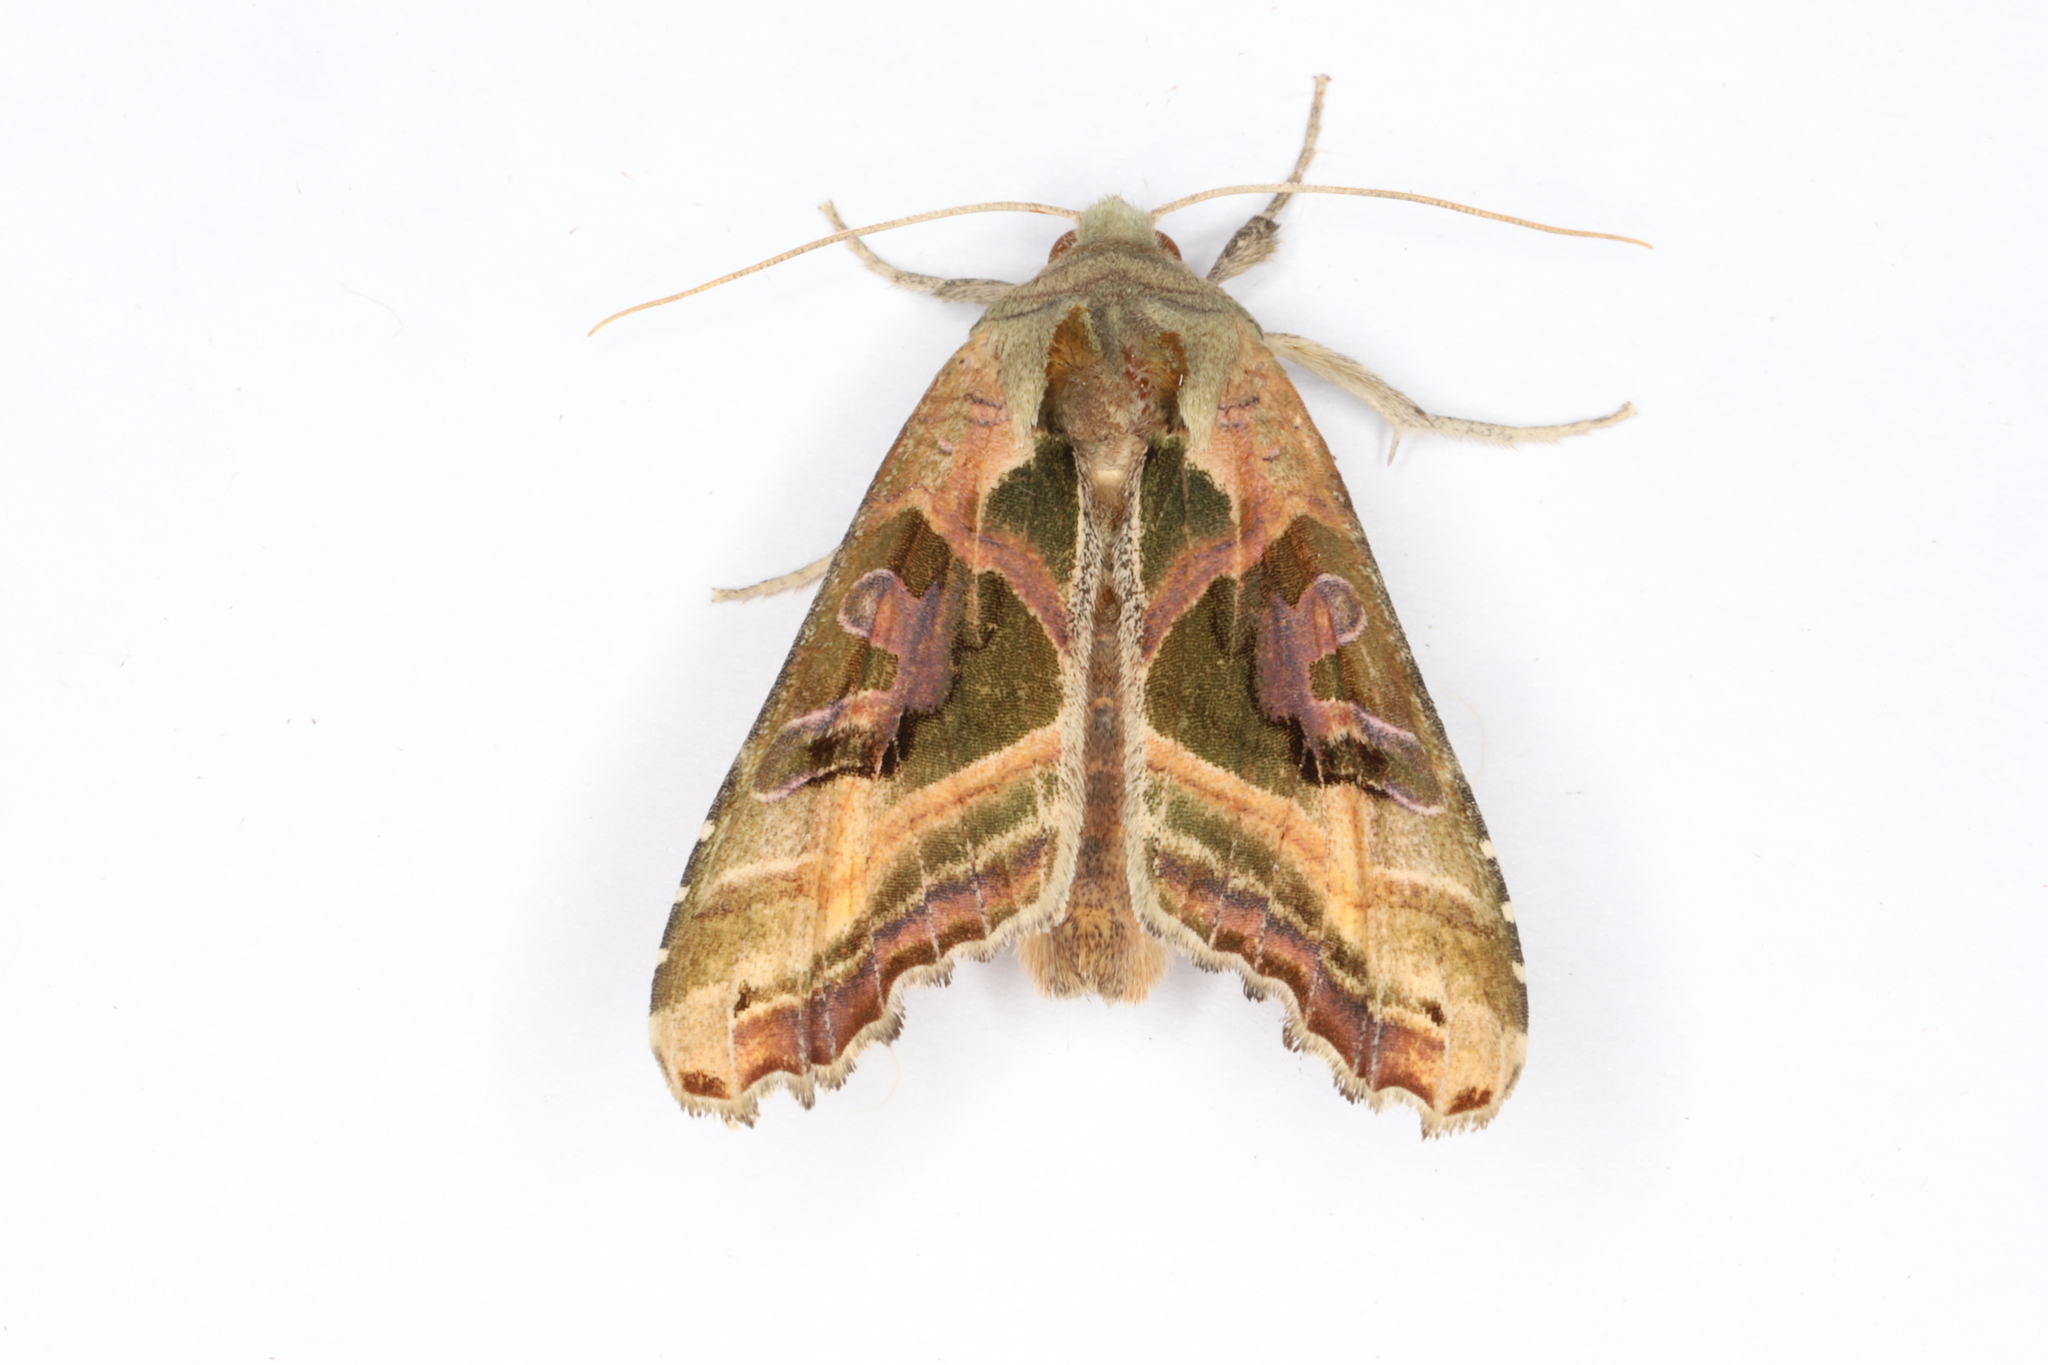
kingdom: Animalia
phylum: Arthropoda
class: Insecta
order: Lepidoptera
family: Noctuidae
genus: Phlogophora
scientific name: Phlogophora iris
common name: Olive angle shades
